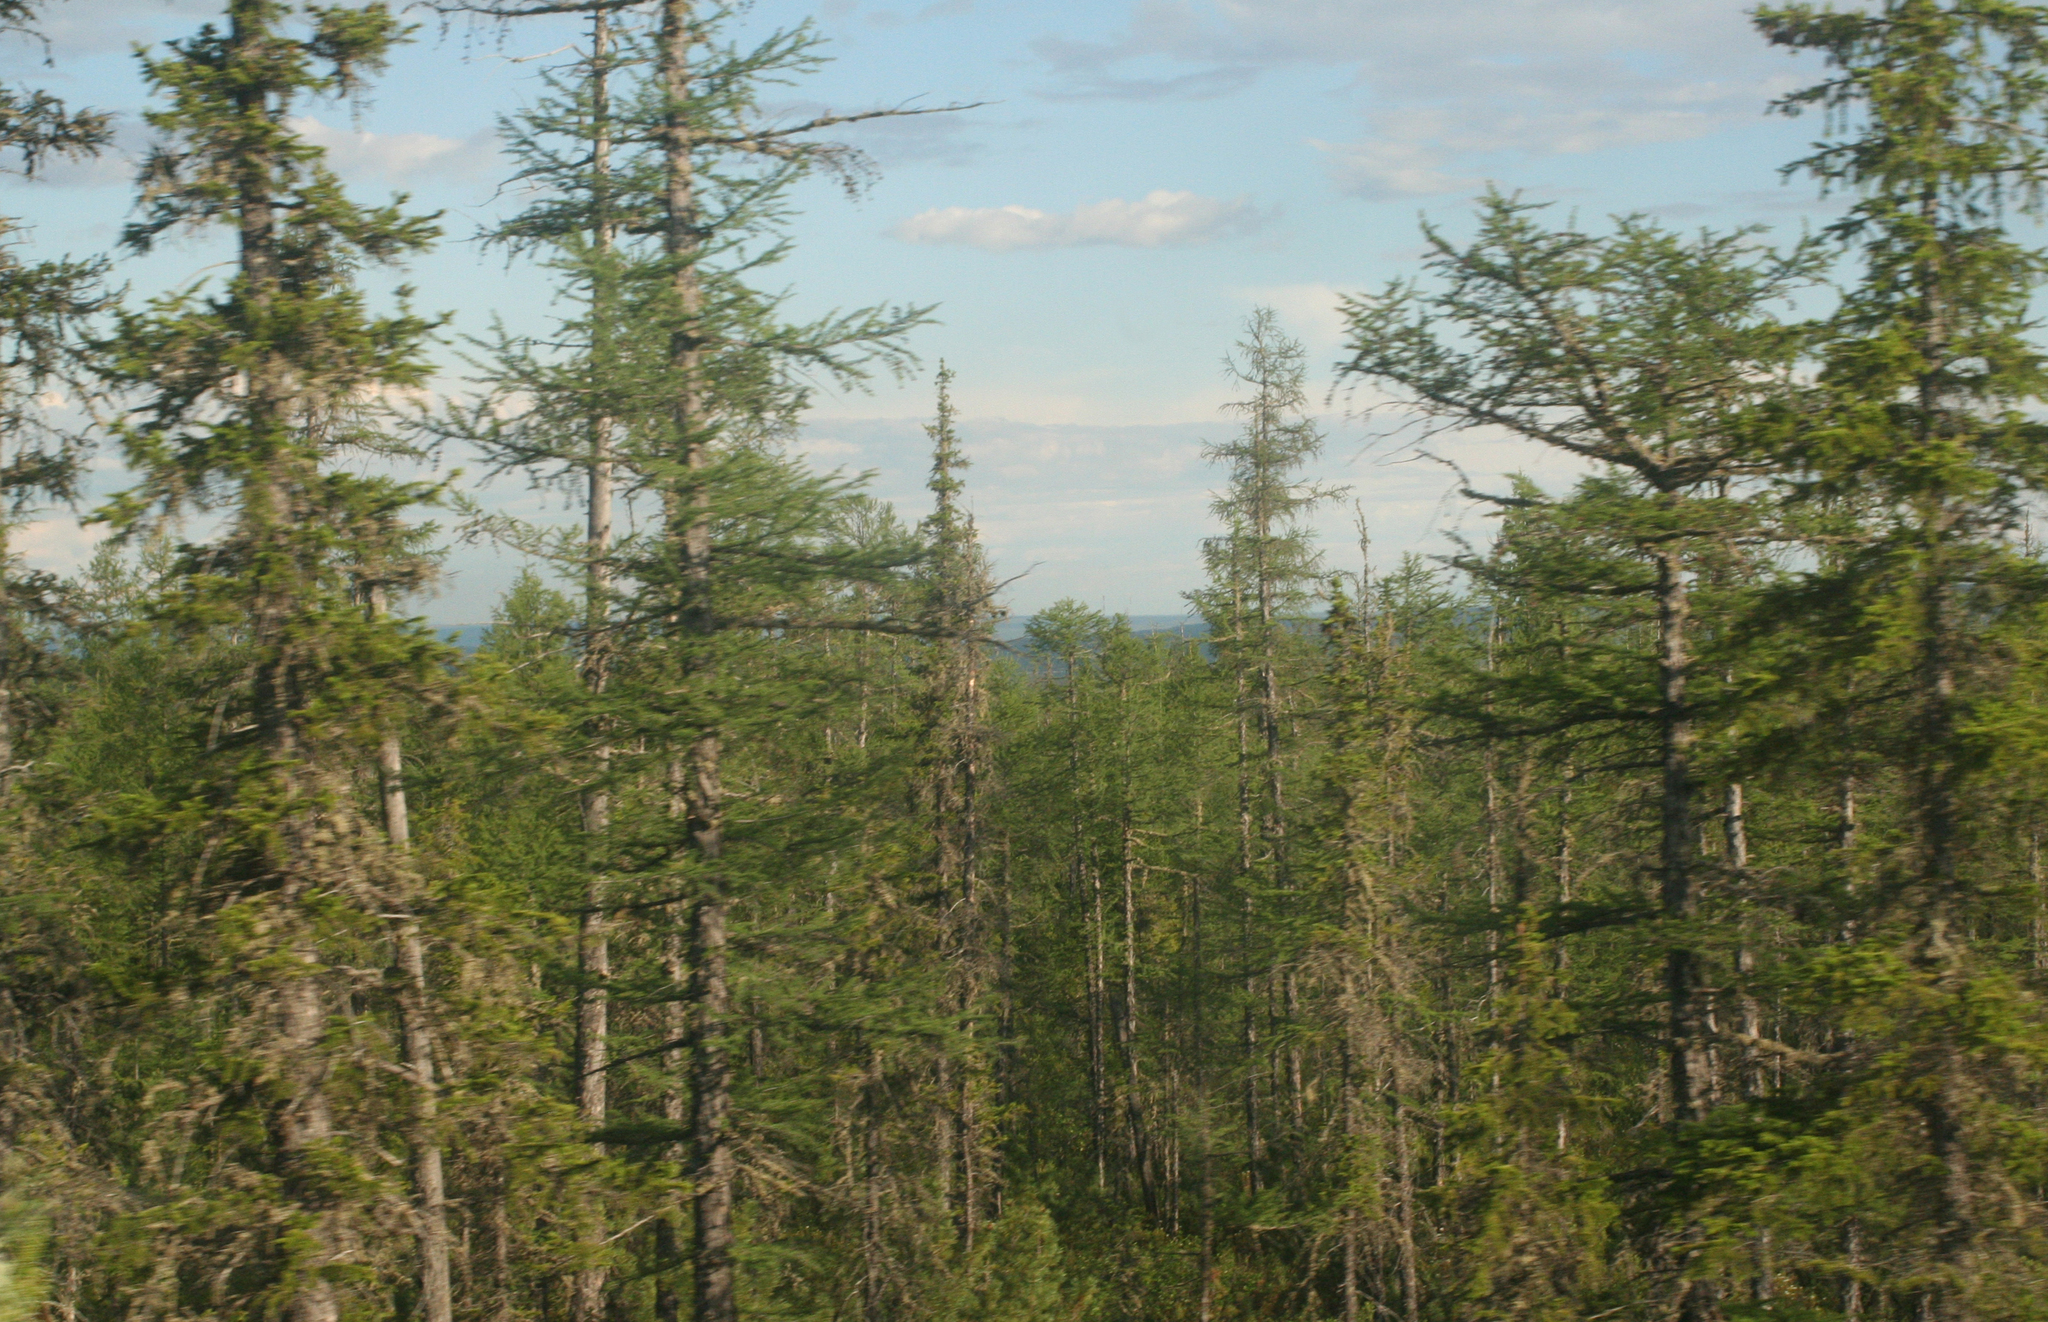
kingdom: Plantae
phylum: Tracheophyta
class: Pinopsida
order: Pinales
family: Pinaceae
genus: Picea
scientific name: Picea obovata
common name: Siberian spruce
